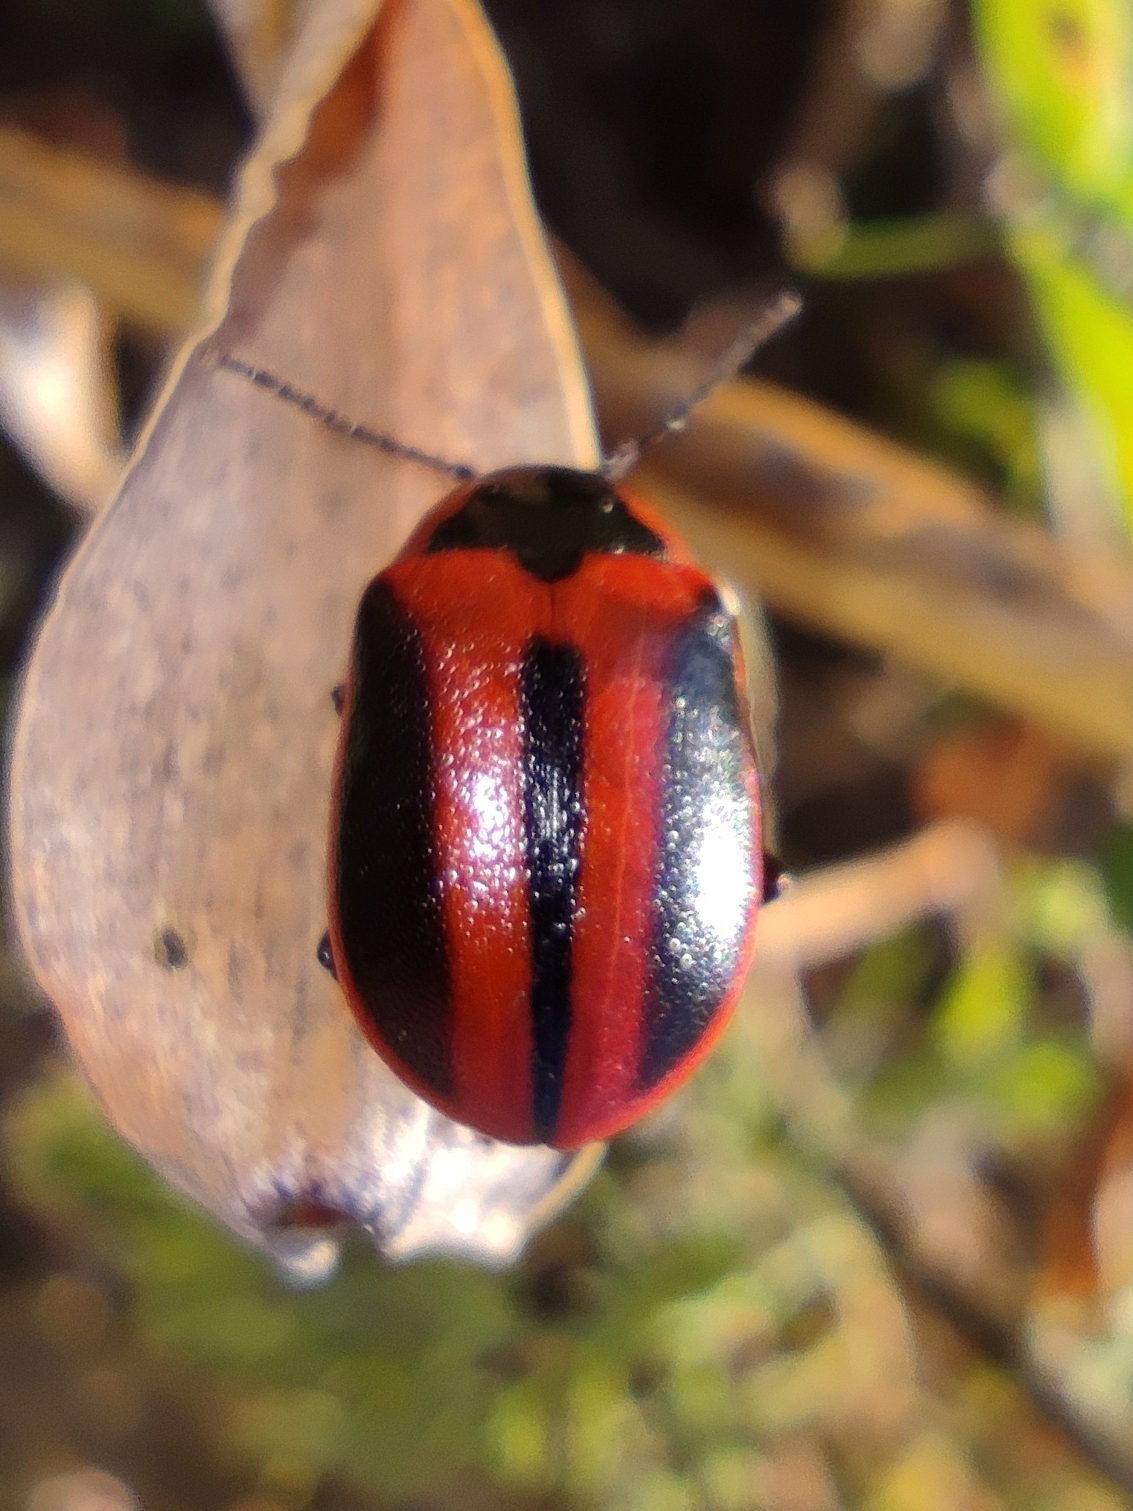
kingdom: Animalia
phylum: Arthropoda
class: Insecta
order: Coleoptera
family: Chrysomelidae
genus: Entomoscelis
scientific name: Entomoscelis adonidis
